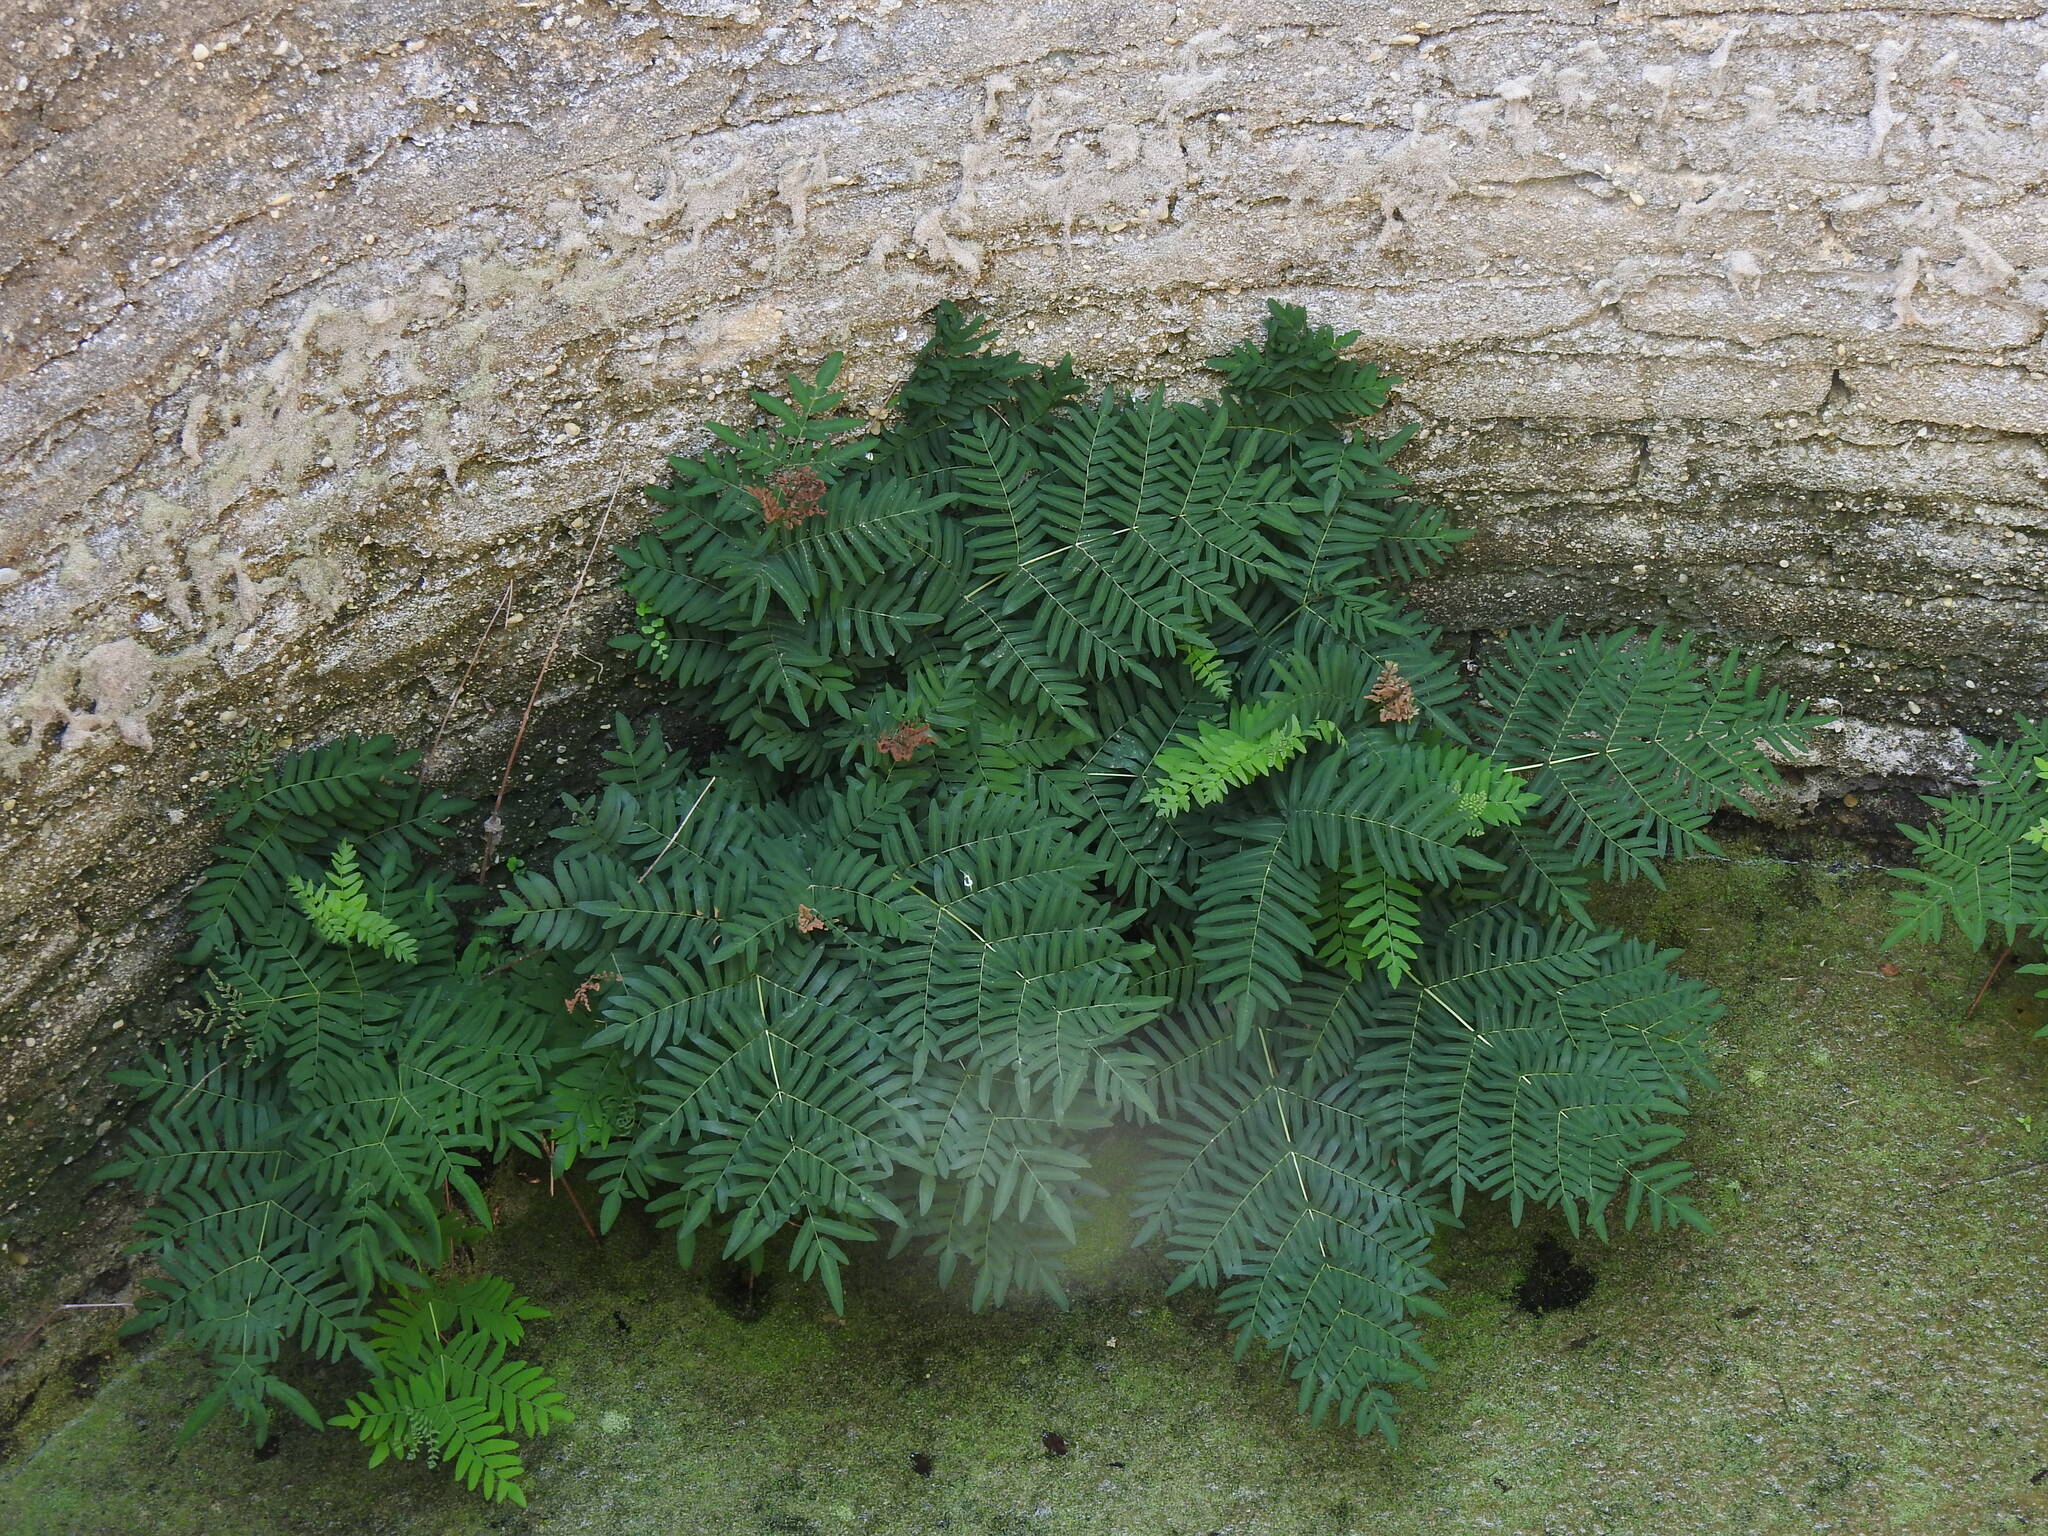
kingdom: Plantae
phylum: Tracheophyta
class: Polypodiopsida
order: Osmundales
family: Osmundaceae
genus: Osmunda
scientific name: Osmunda regalis
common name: Royal fern
